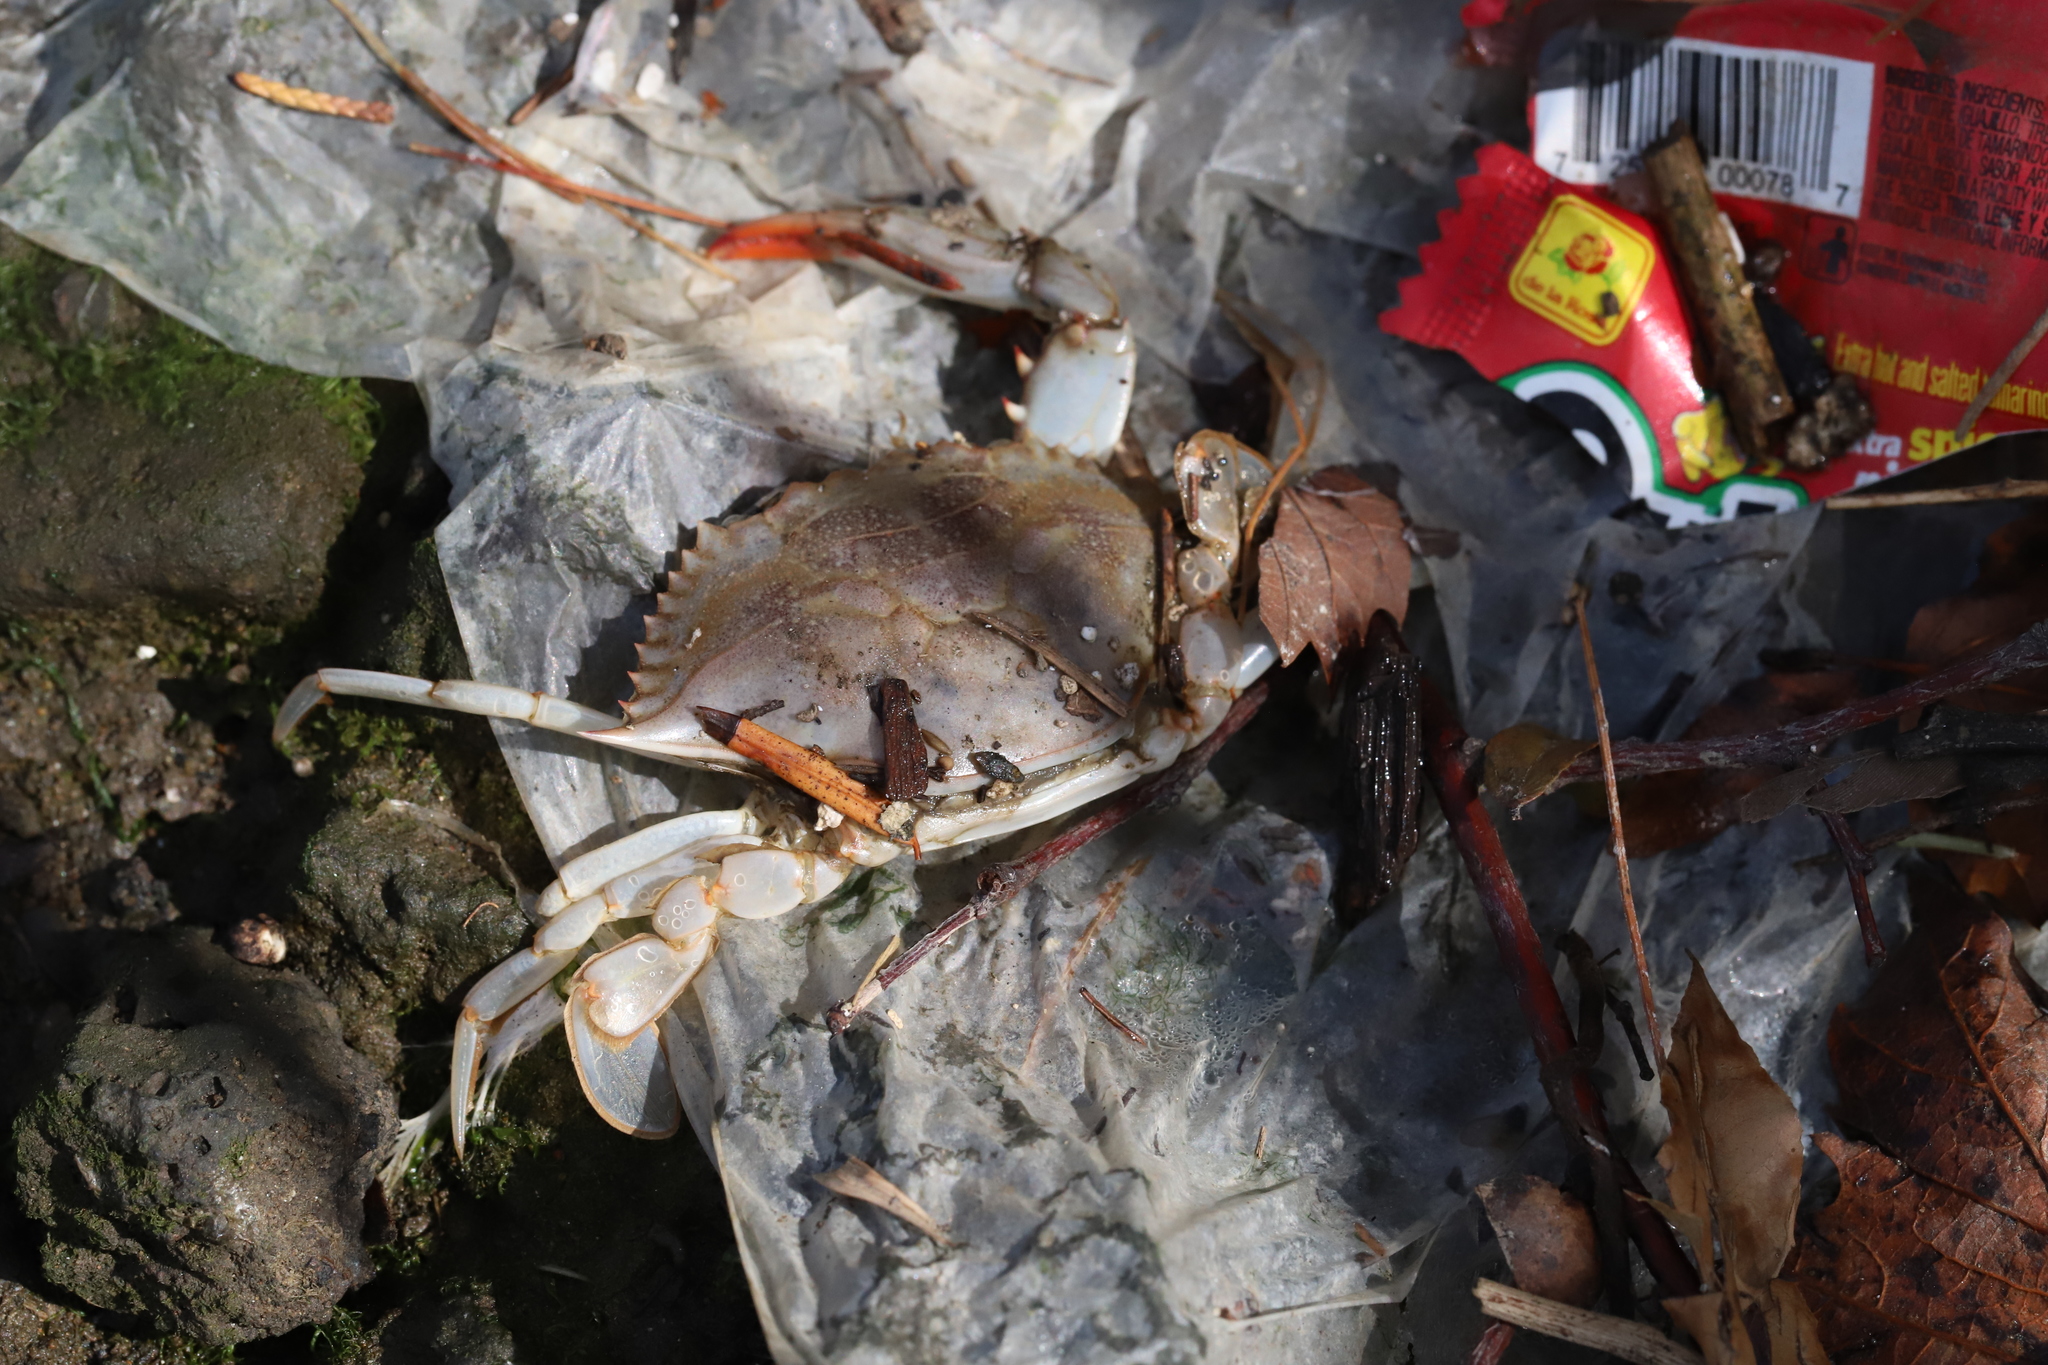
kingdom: Animalia
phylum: Arthropoda
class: Malacostraca
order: Decapoda
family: Portunidae
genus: Callinectes
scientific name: Callinectes sapidus
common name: Blue crab
